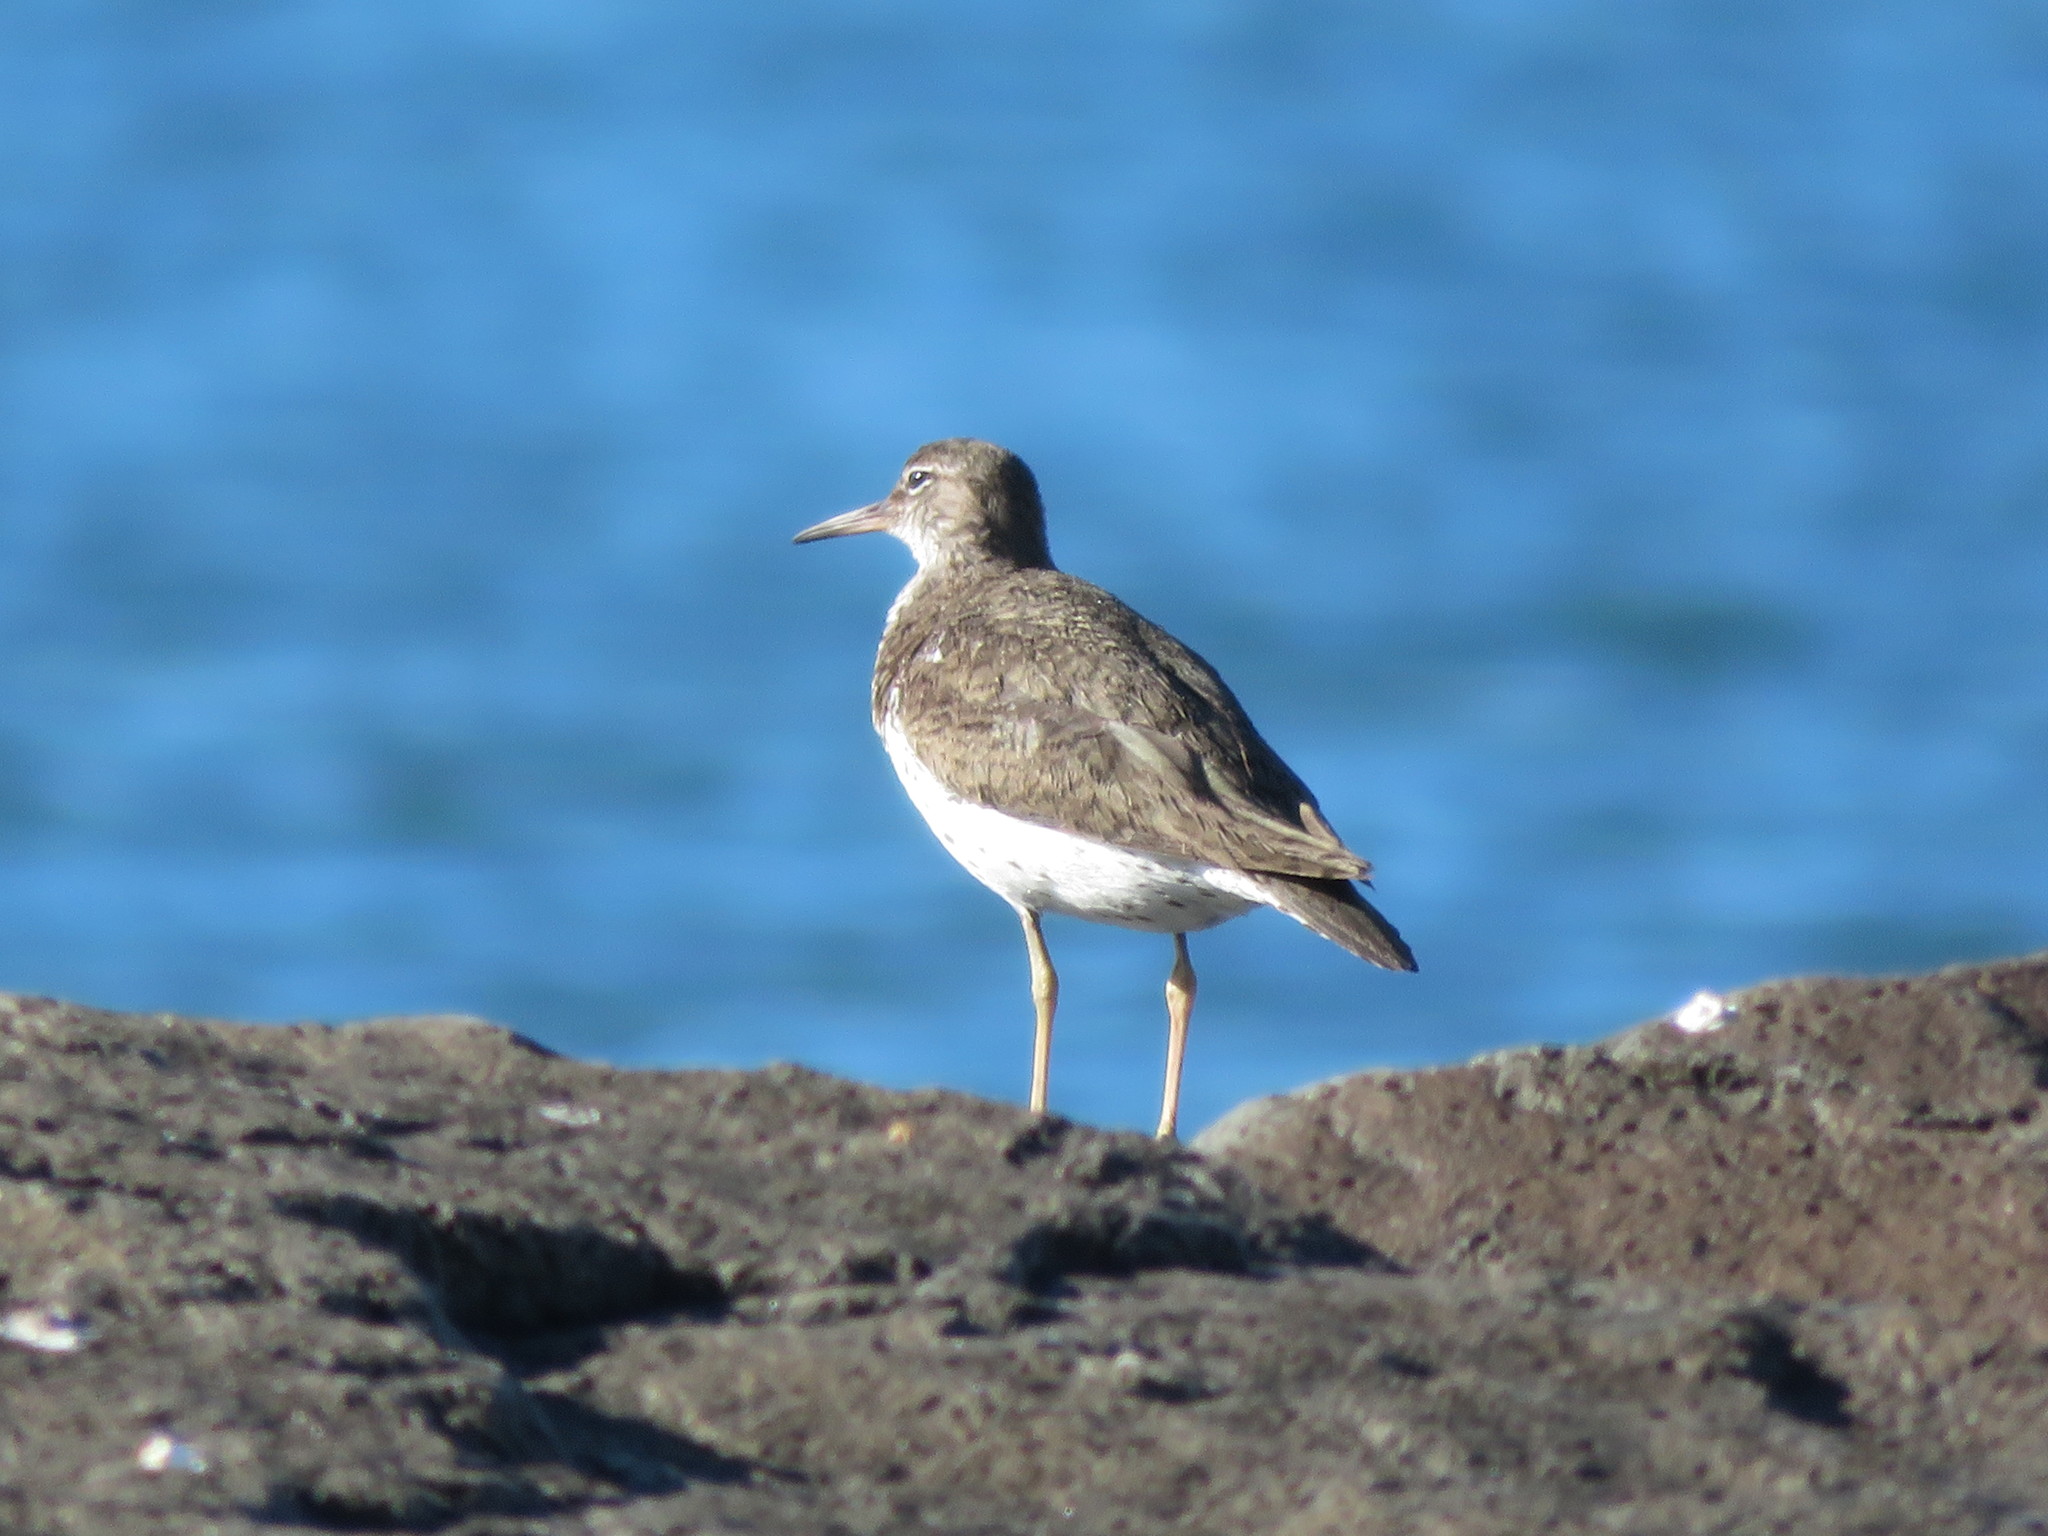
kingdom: Animalia
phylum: Chordata
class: Aves
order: Charadriiformes
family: Scolopacidae
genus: Actitis
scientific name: Actitis macularius
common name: Spotted sandpiper
